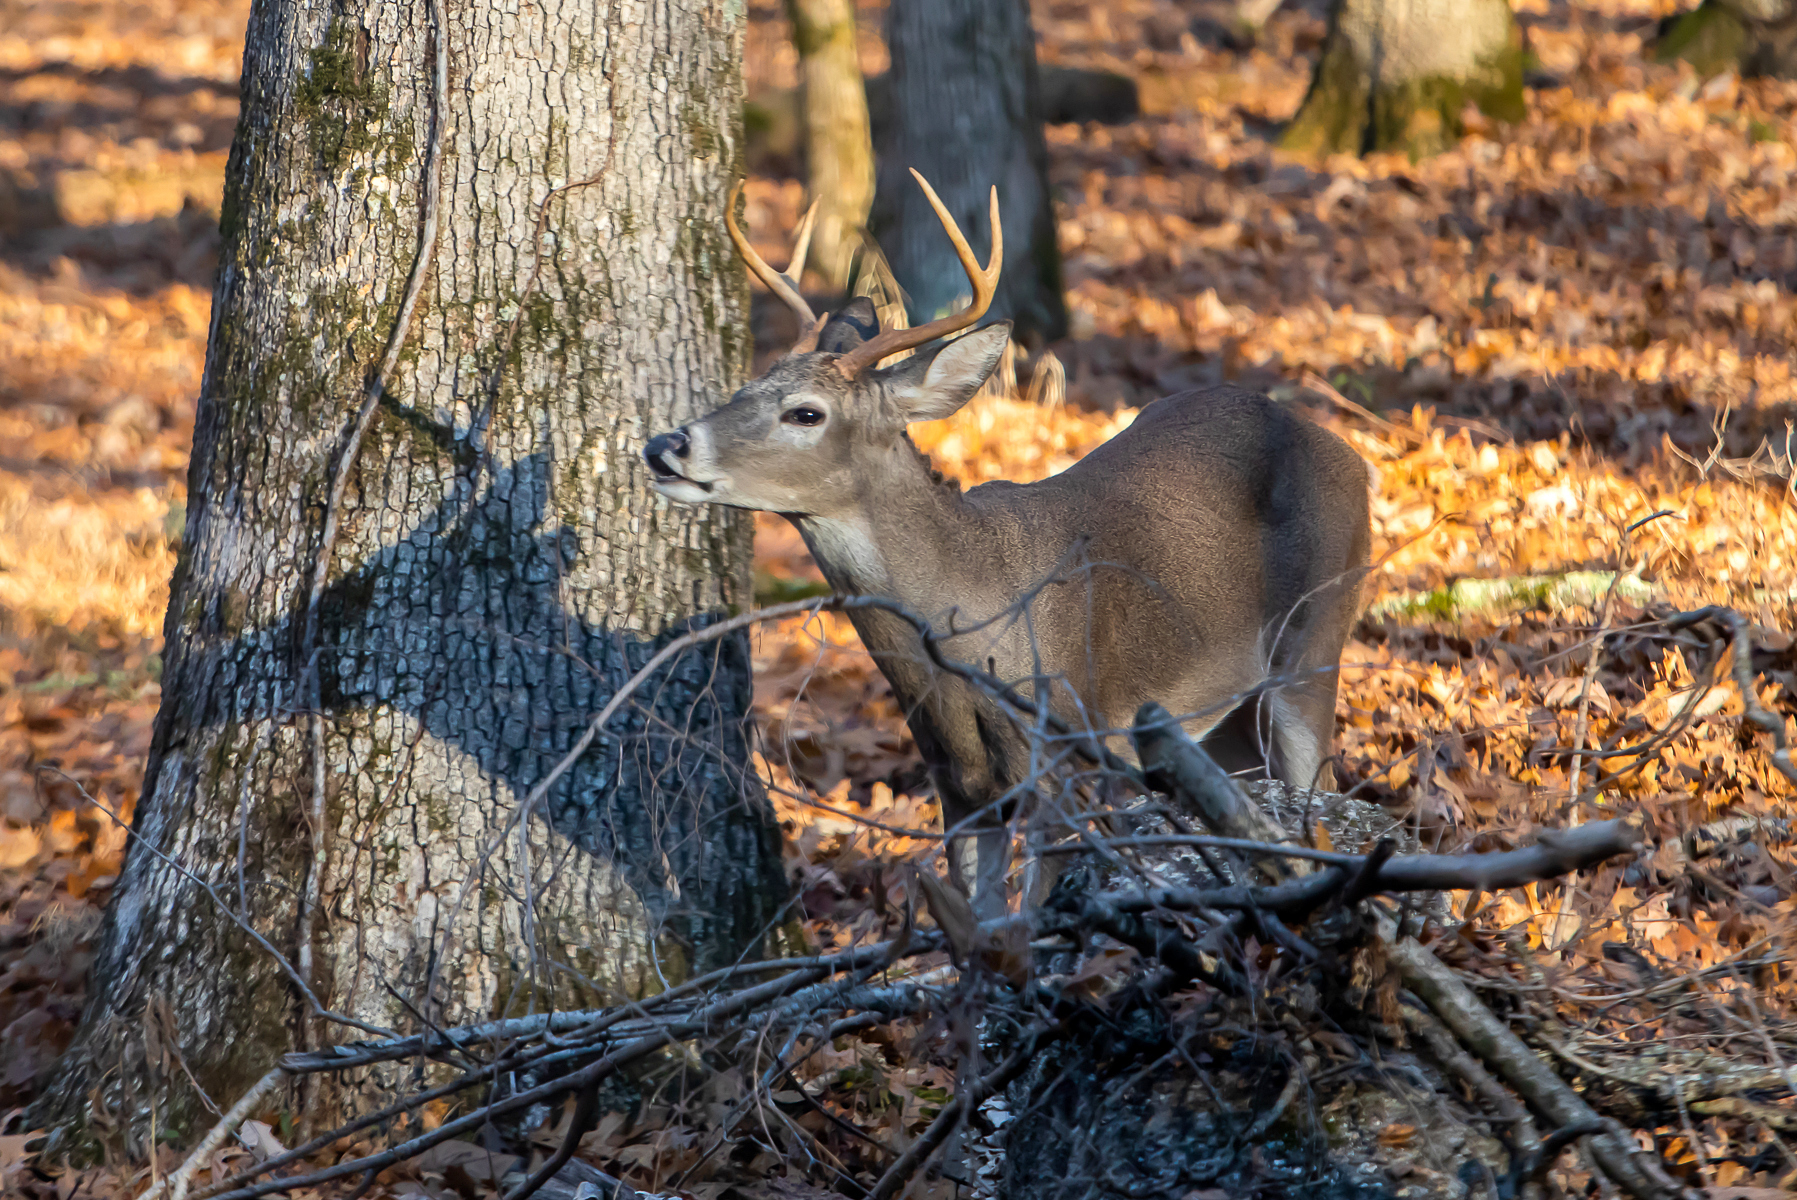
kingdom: Animalia
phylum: Chordata
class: Mammalia
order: Artiodactyla
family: Cervidae
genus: Odocoileus
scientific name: Odocoileus virginianus
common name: White-tailed deer
